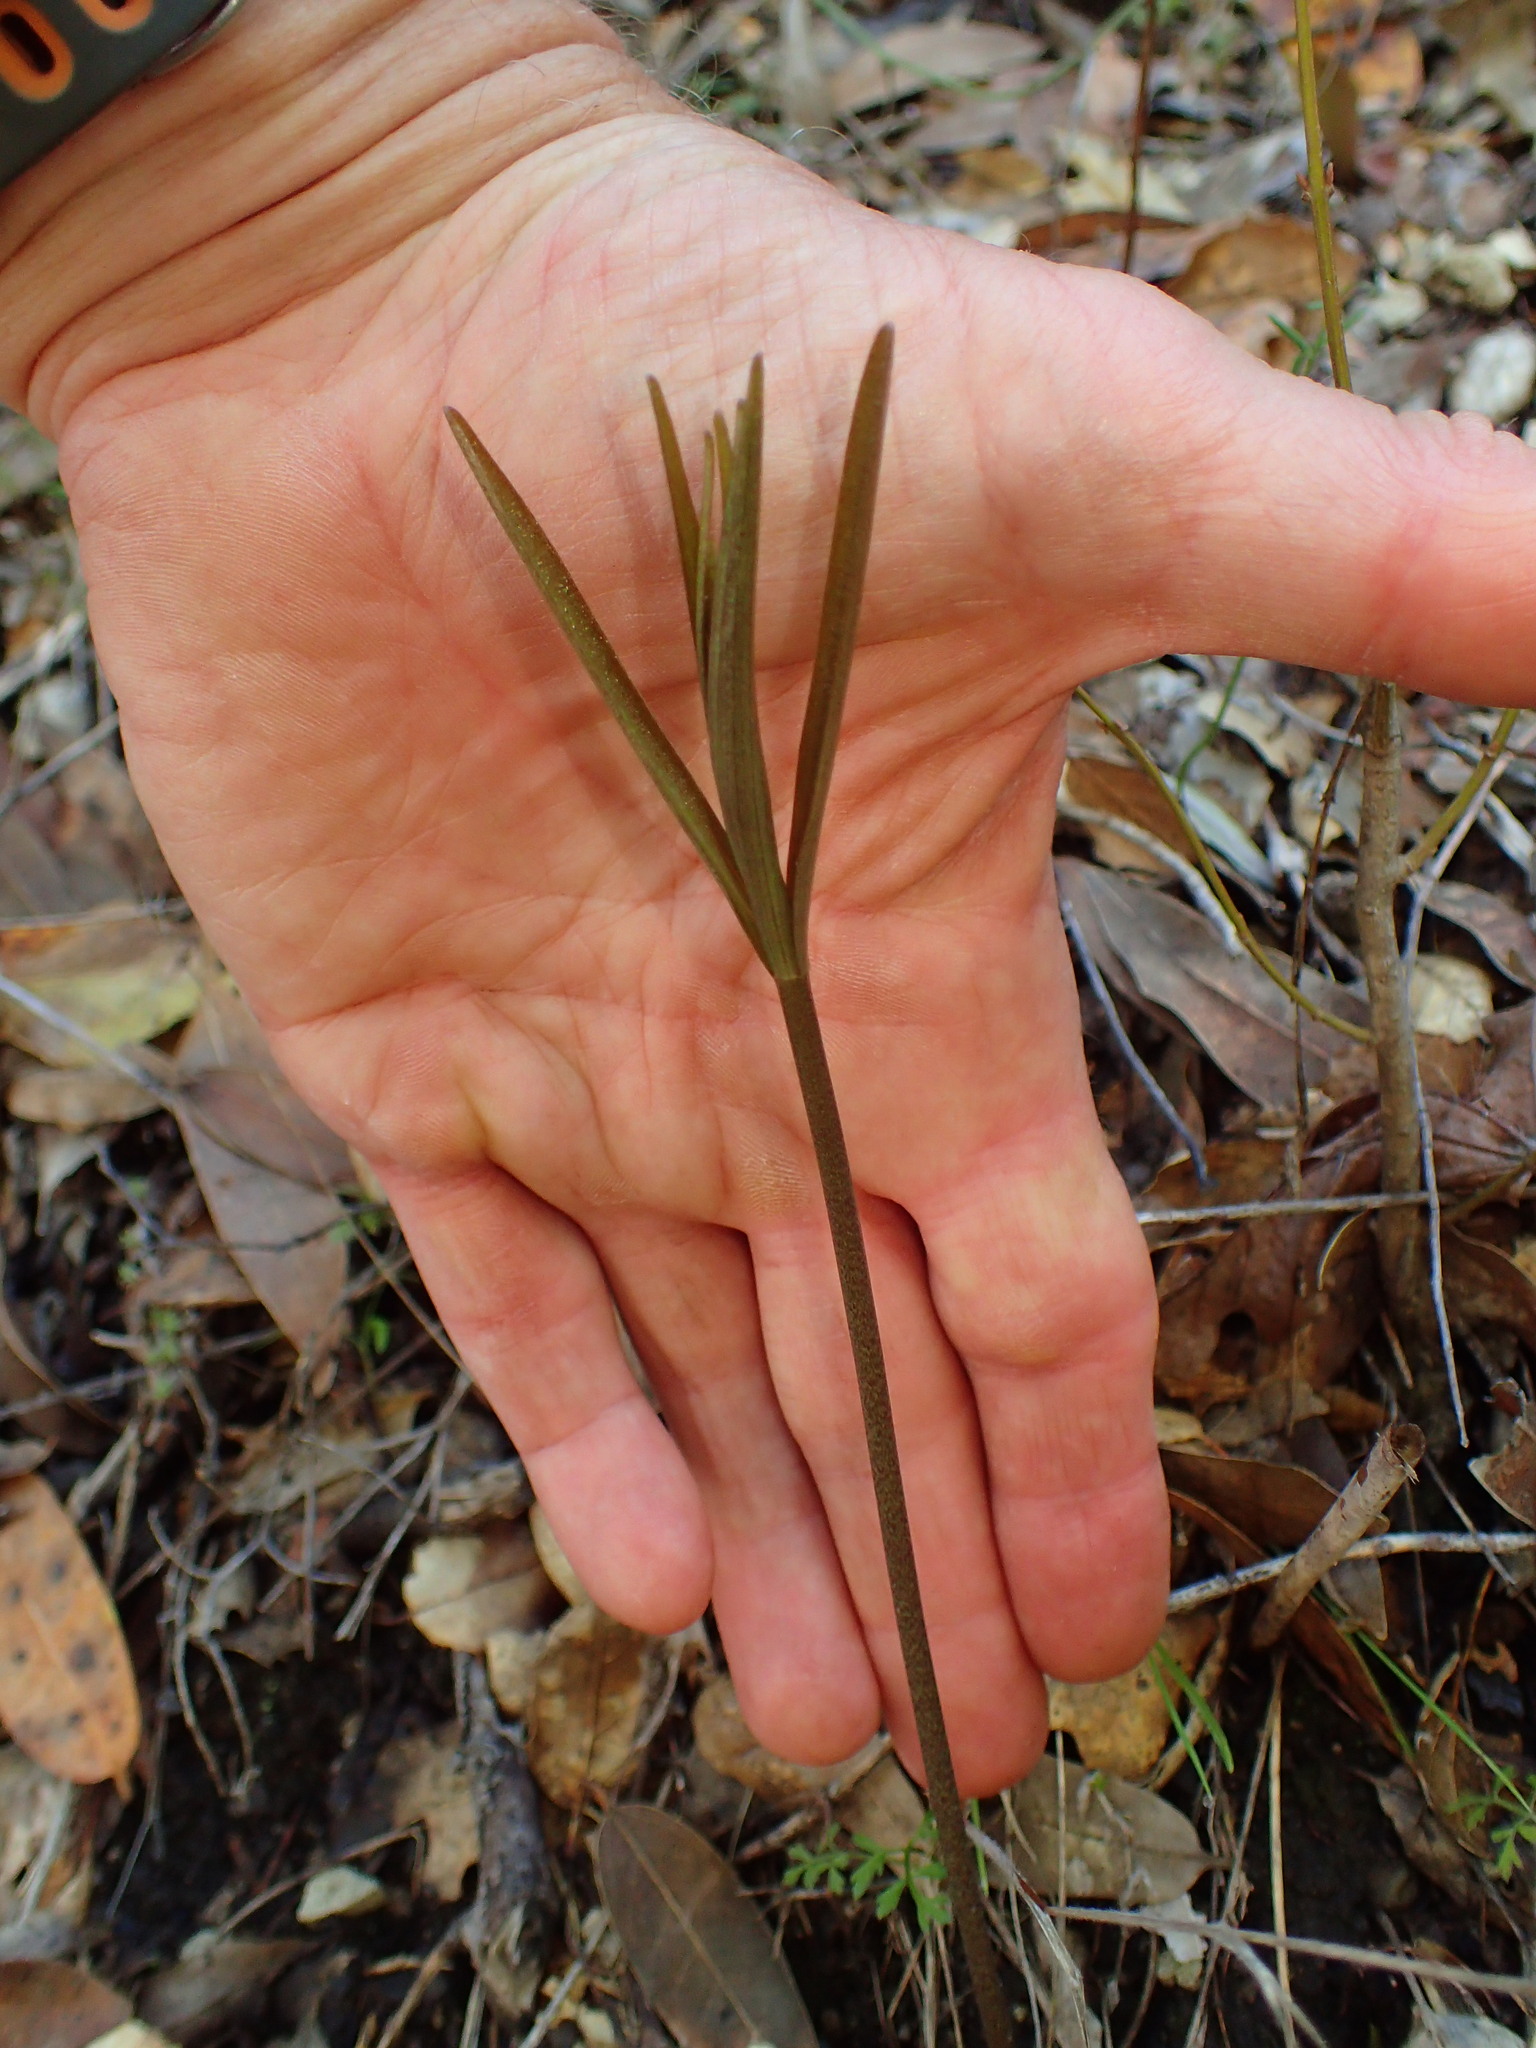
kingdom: Plantae
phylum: Tracheophyta
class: Liliopsida
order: Liliales
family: Liliaceae
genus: Fritillaria
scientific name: Fritillaria ojaiensis
